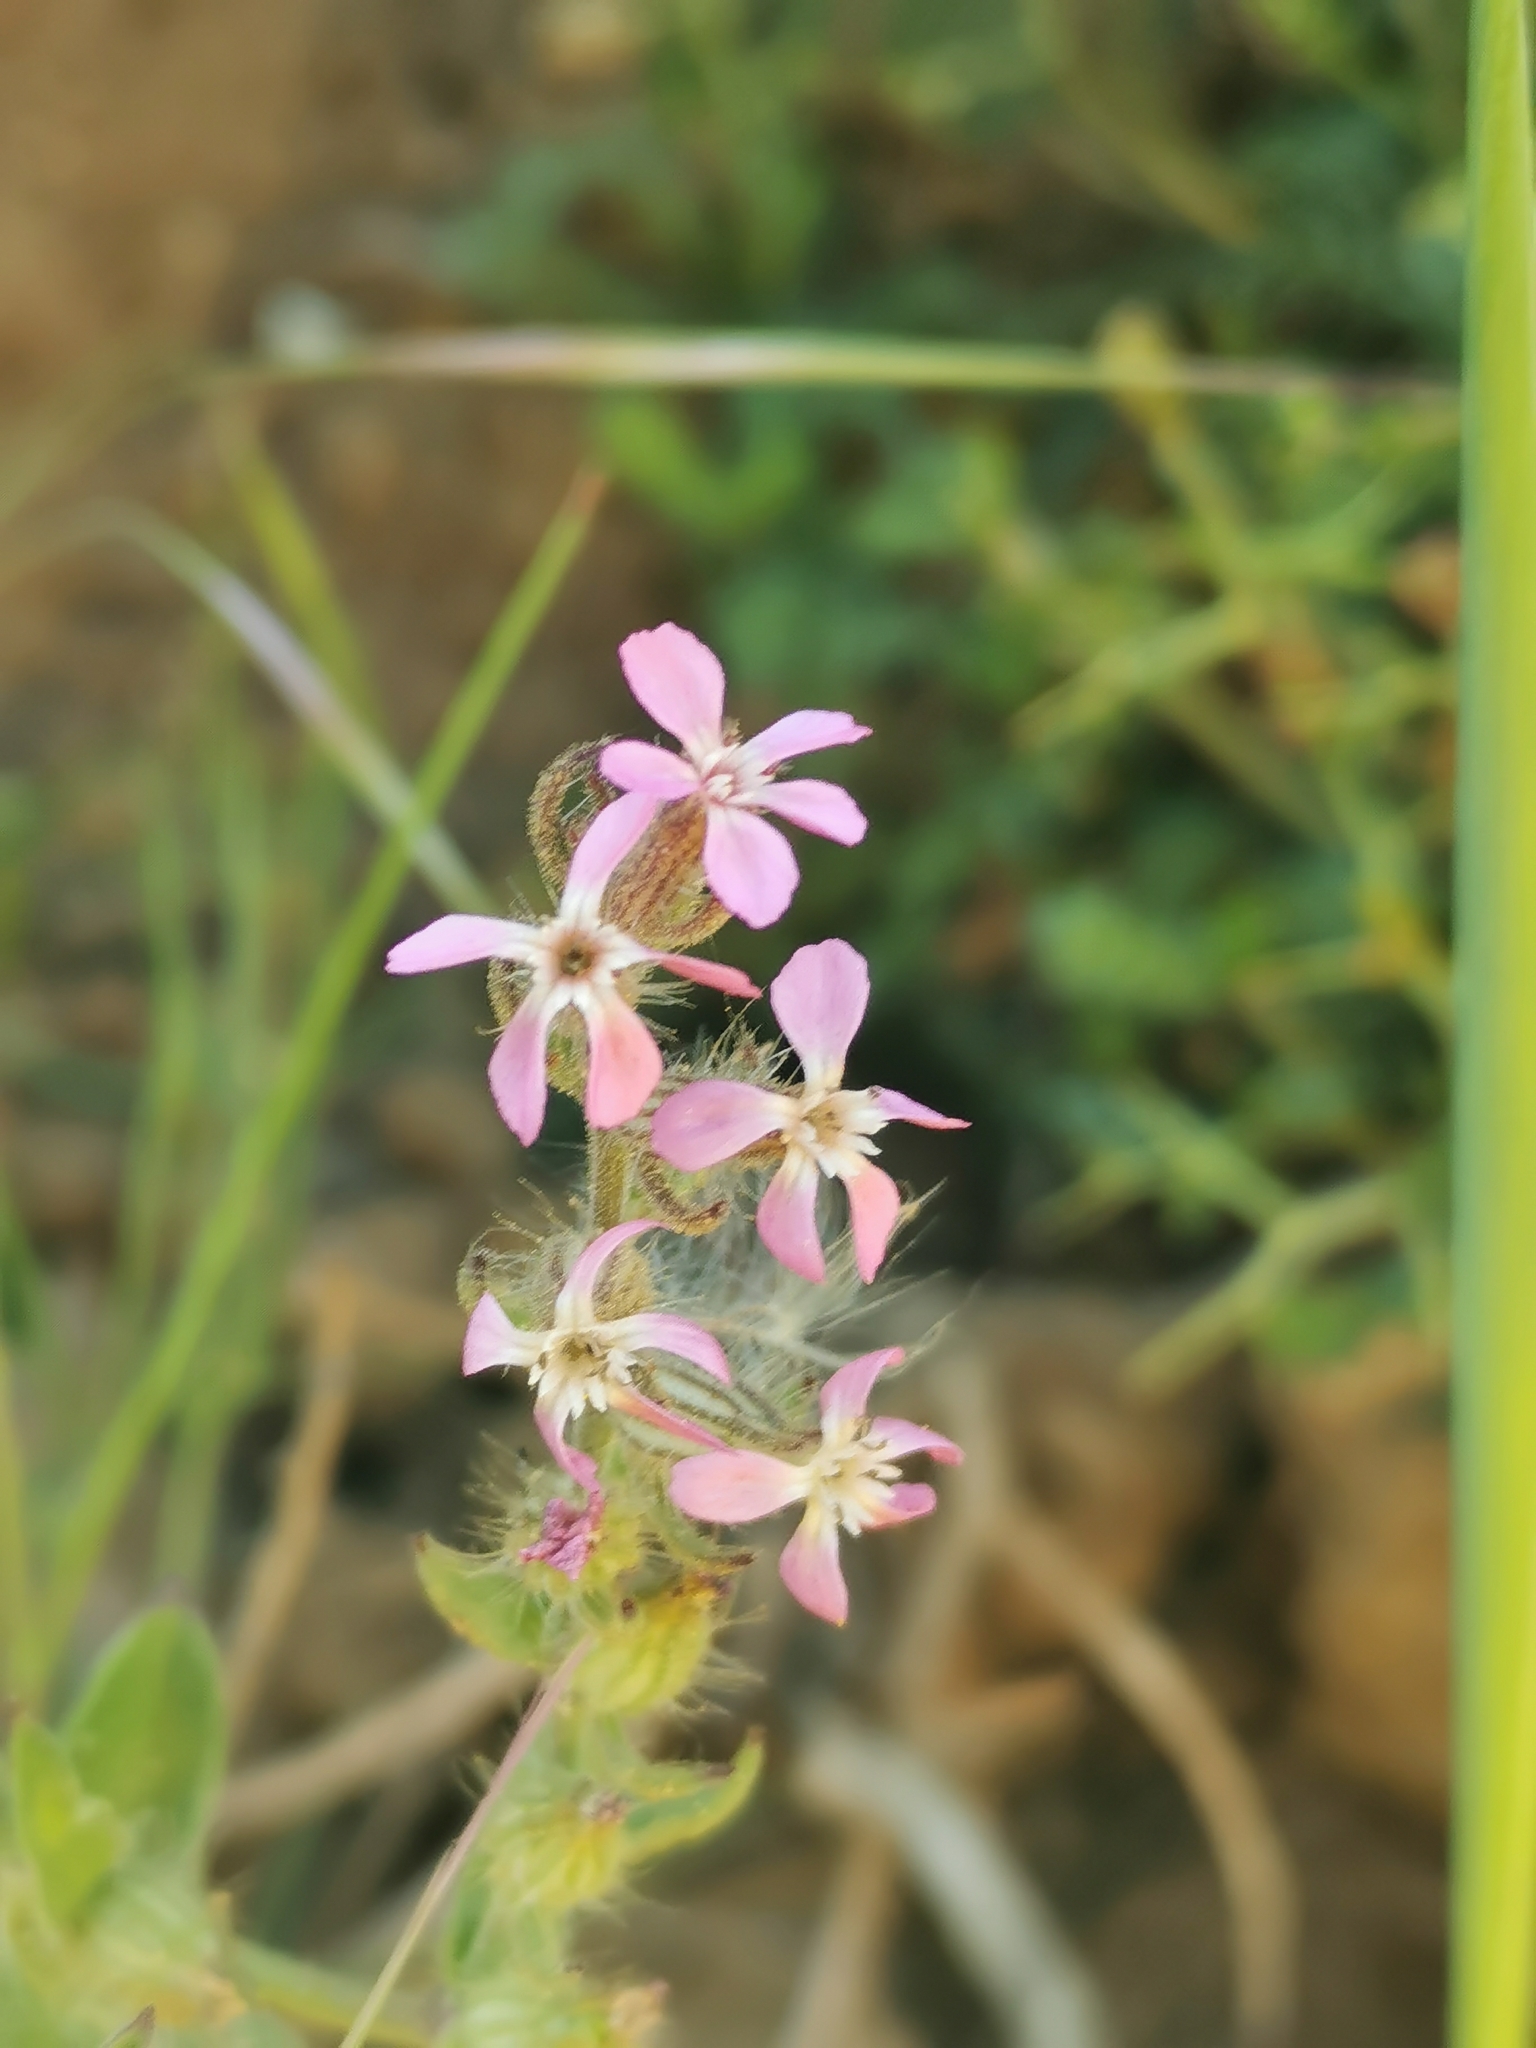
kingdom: Plantae
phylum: Tracheophyta
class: Magnoliopsida
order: Caryophyllales
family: Caryophyllaceae
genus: Silene
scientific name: Silene gallica
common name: Small-flowered catchfly
